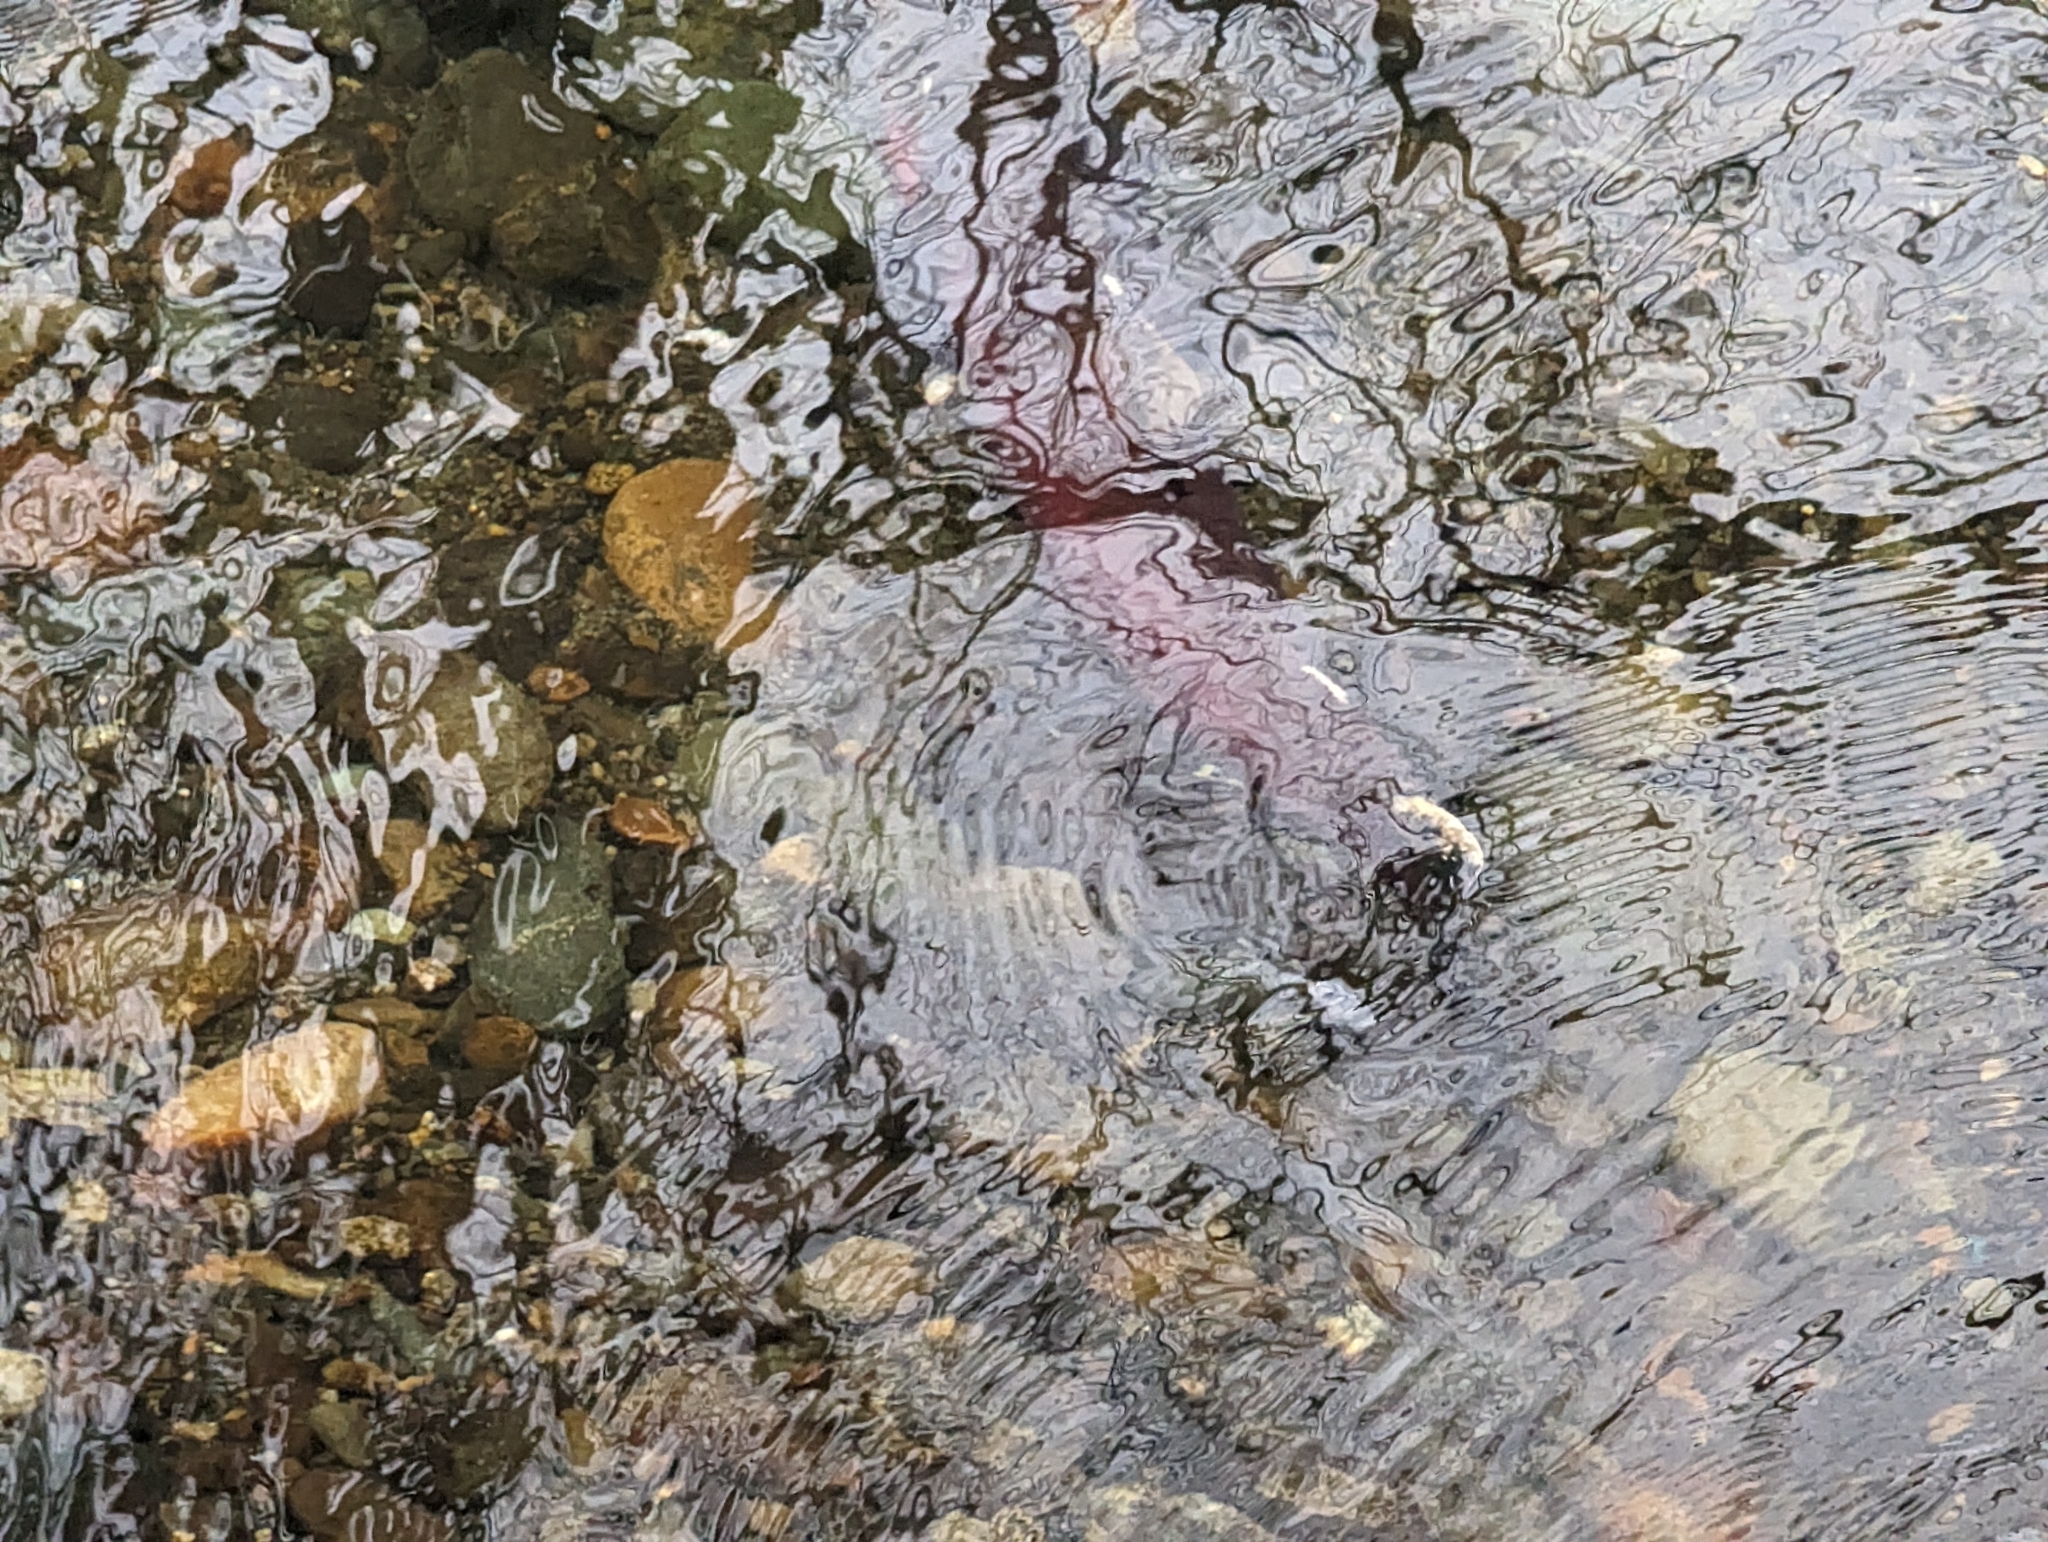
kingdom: Animalia
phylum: Chordata
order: Salmoniformes
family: Salmonidae
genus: Oncorhynchus
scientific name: Oncorhynchus nerka
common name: Sockeye salmon
